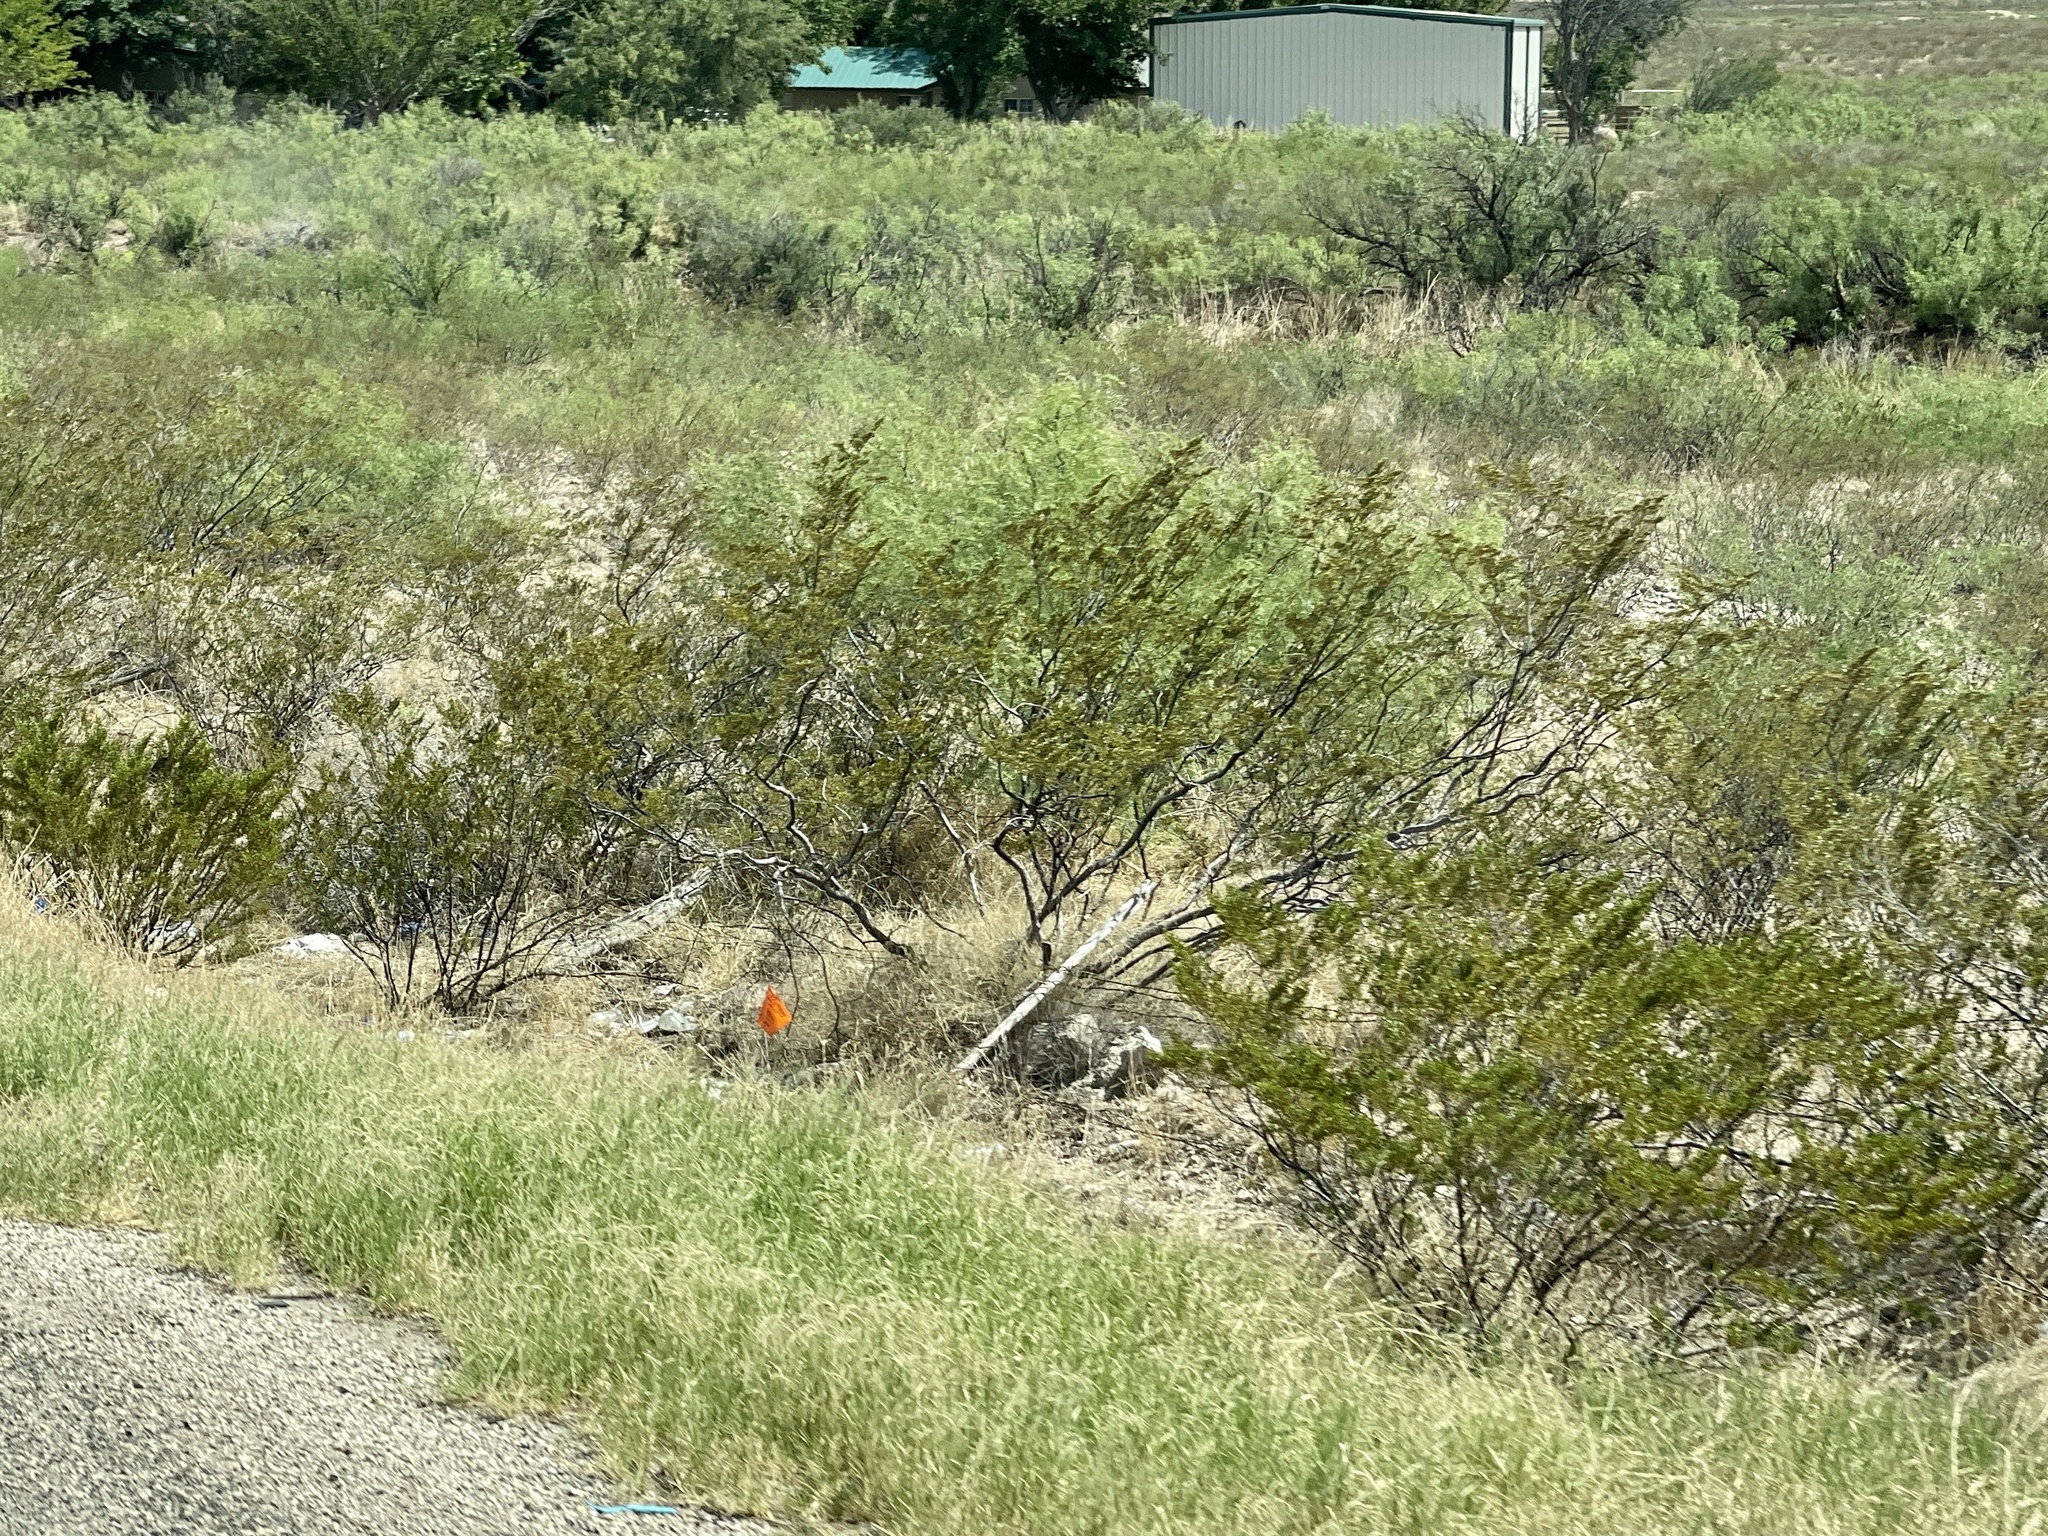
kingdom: Plantae
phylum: Tracheophyta
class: Magnoliopsida
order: Zygophyllales
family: Zygophyllaceae
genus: Larrea
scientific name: Larrea tridentata
